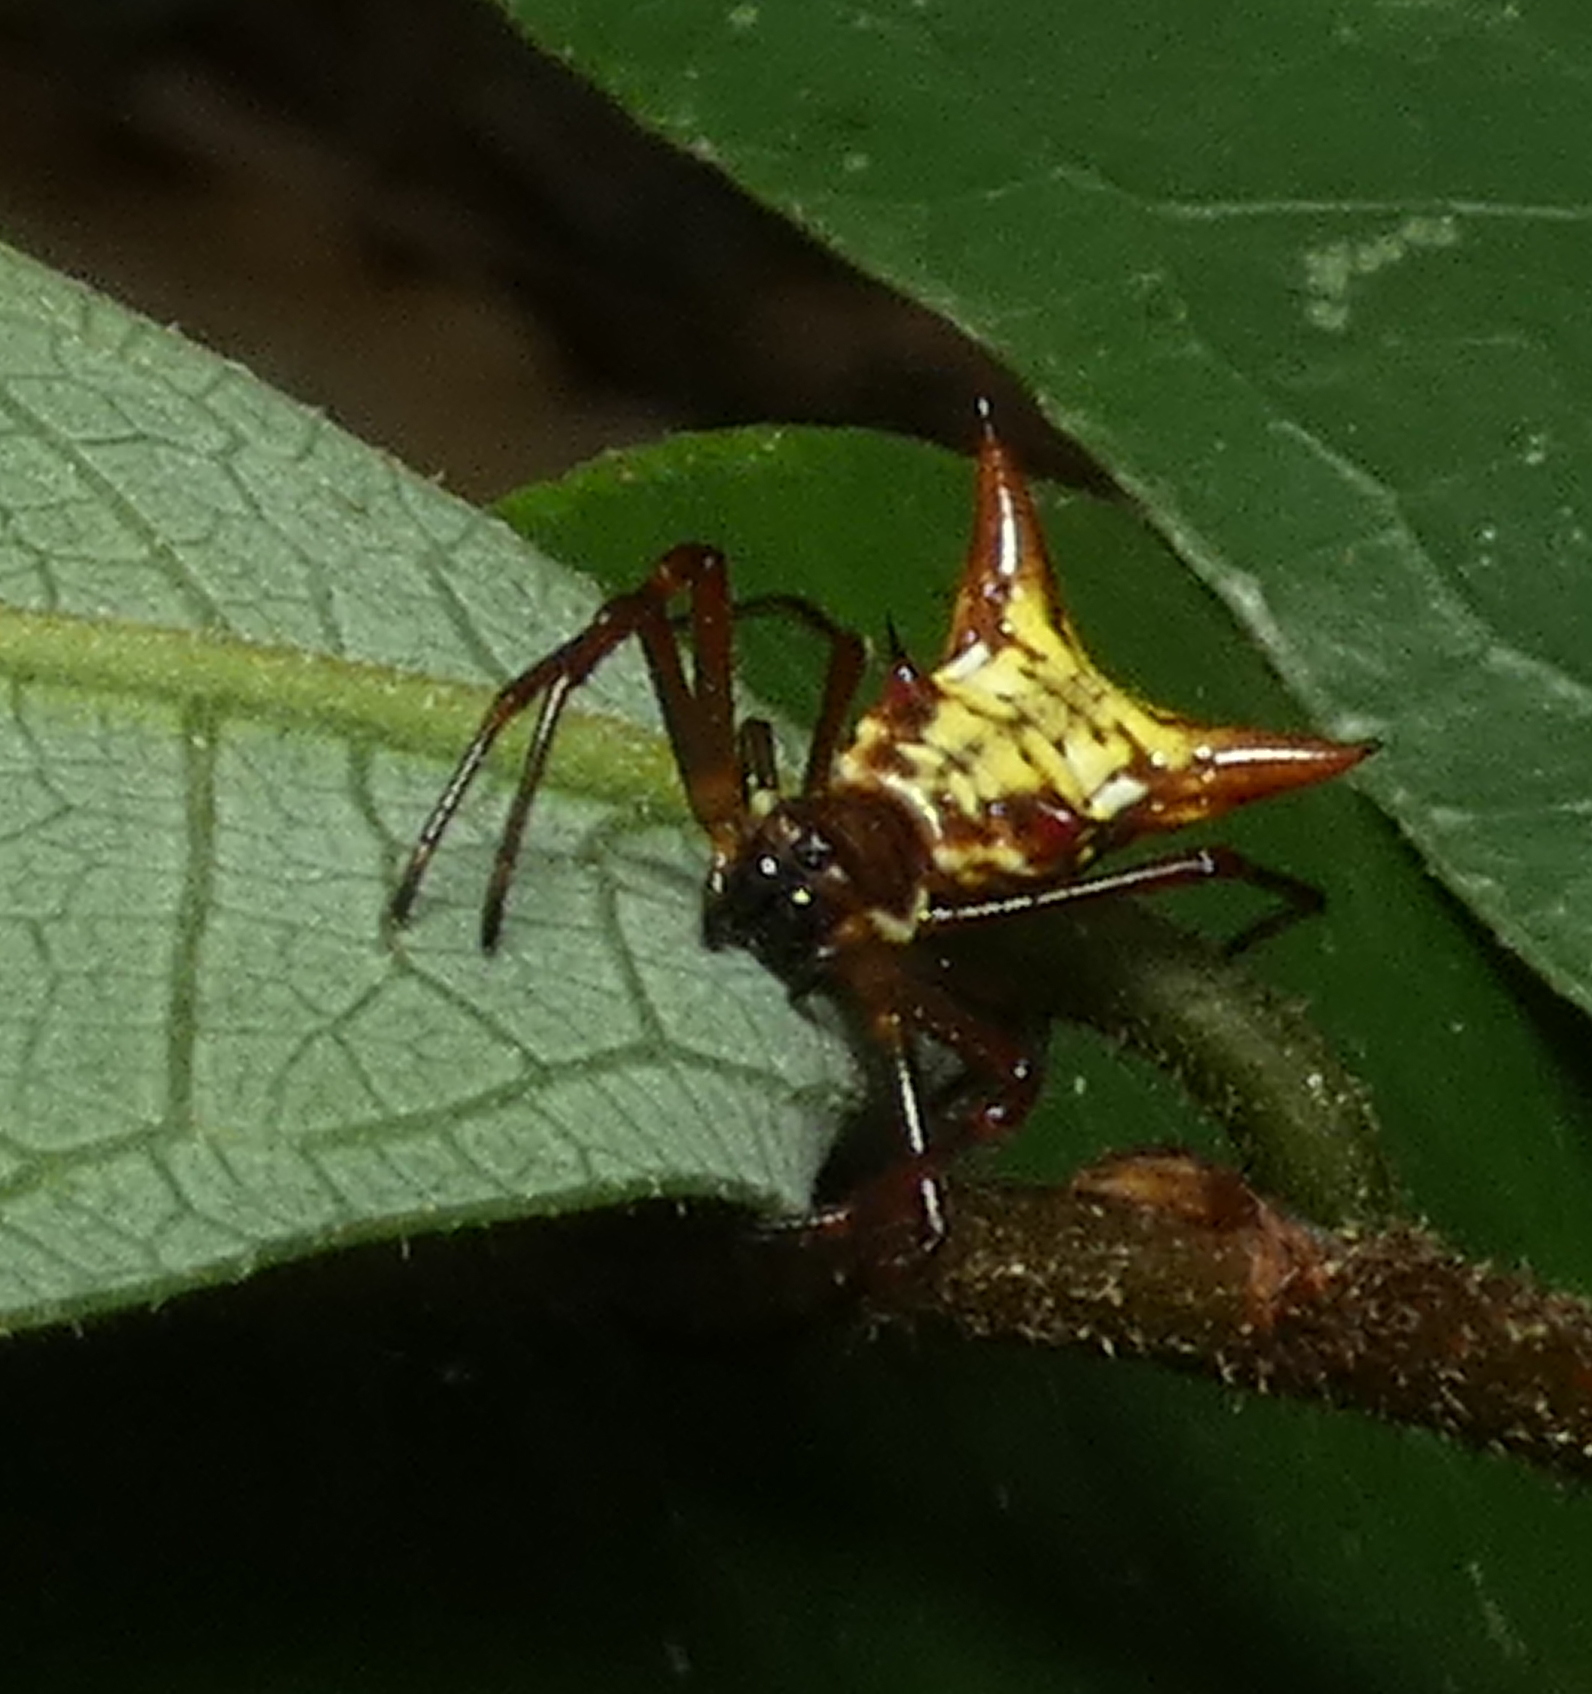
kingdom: Animalia
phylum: Arthropoda
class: Arachnida
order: Araneae
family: Araneidae
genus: Micrathena
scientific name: Micrathena fissispina
